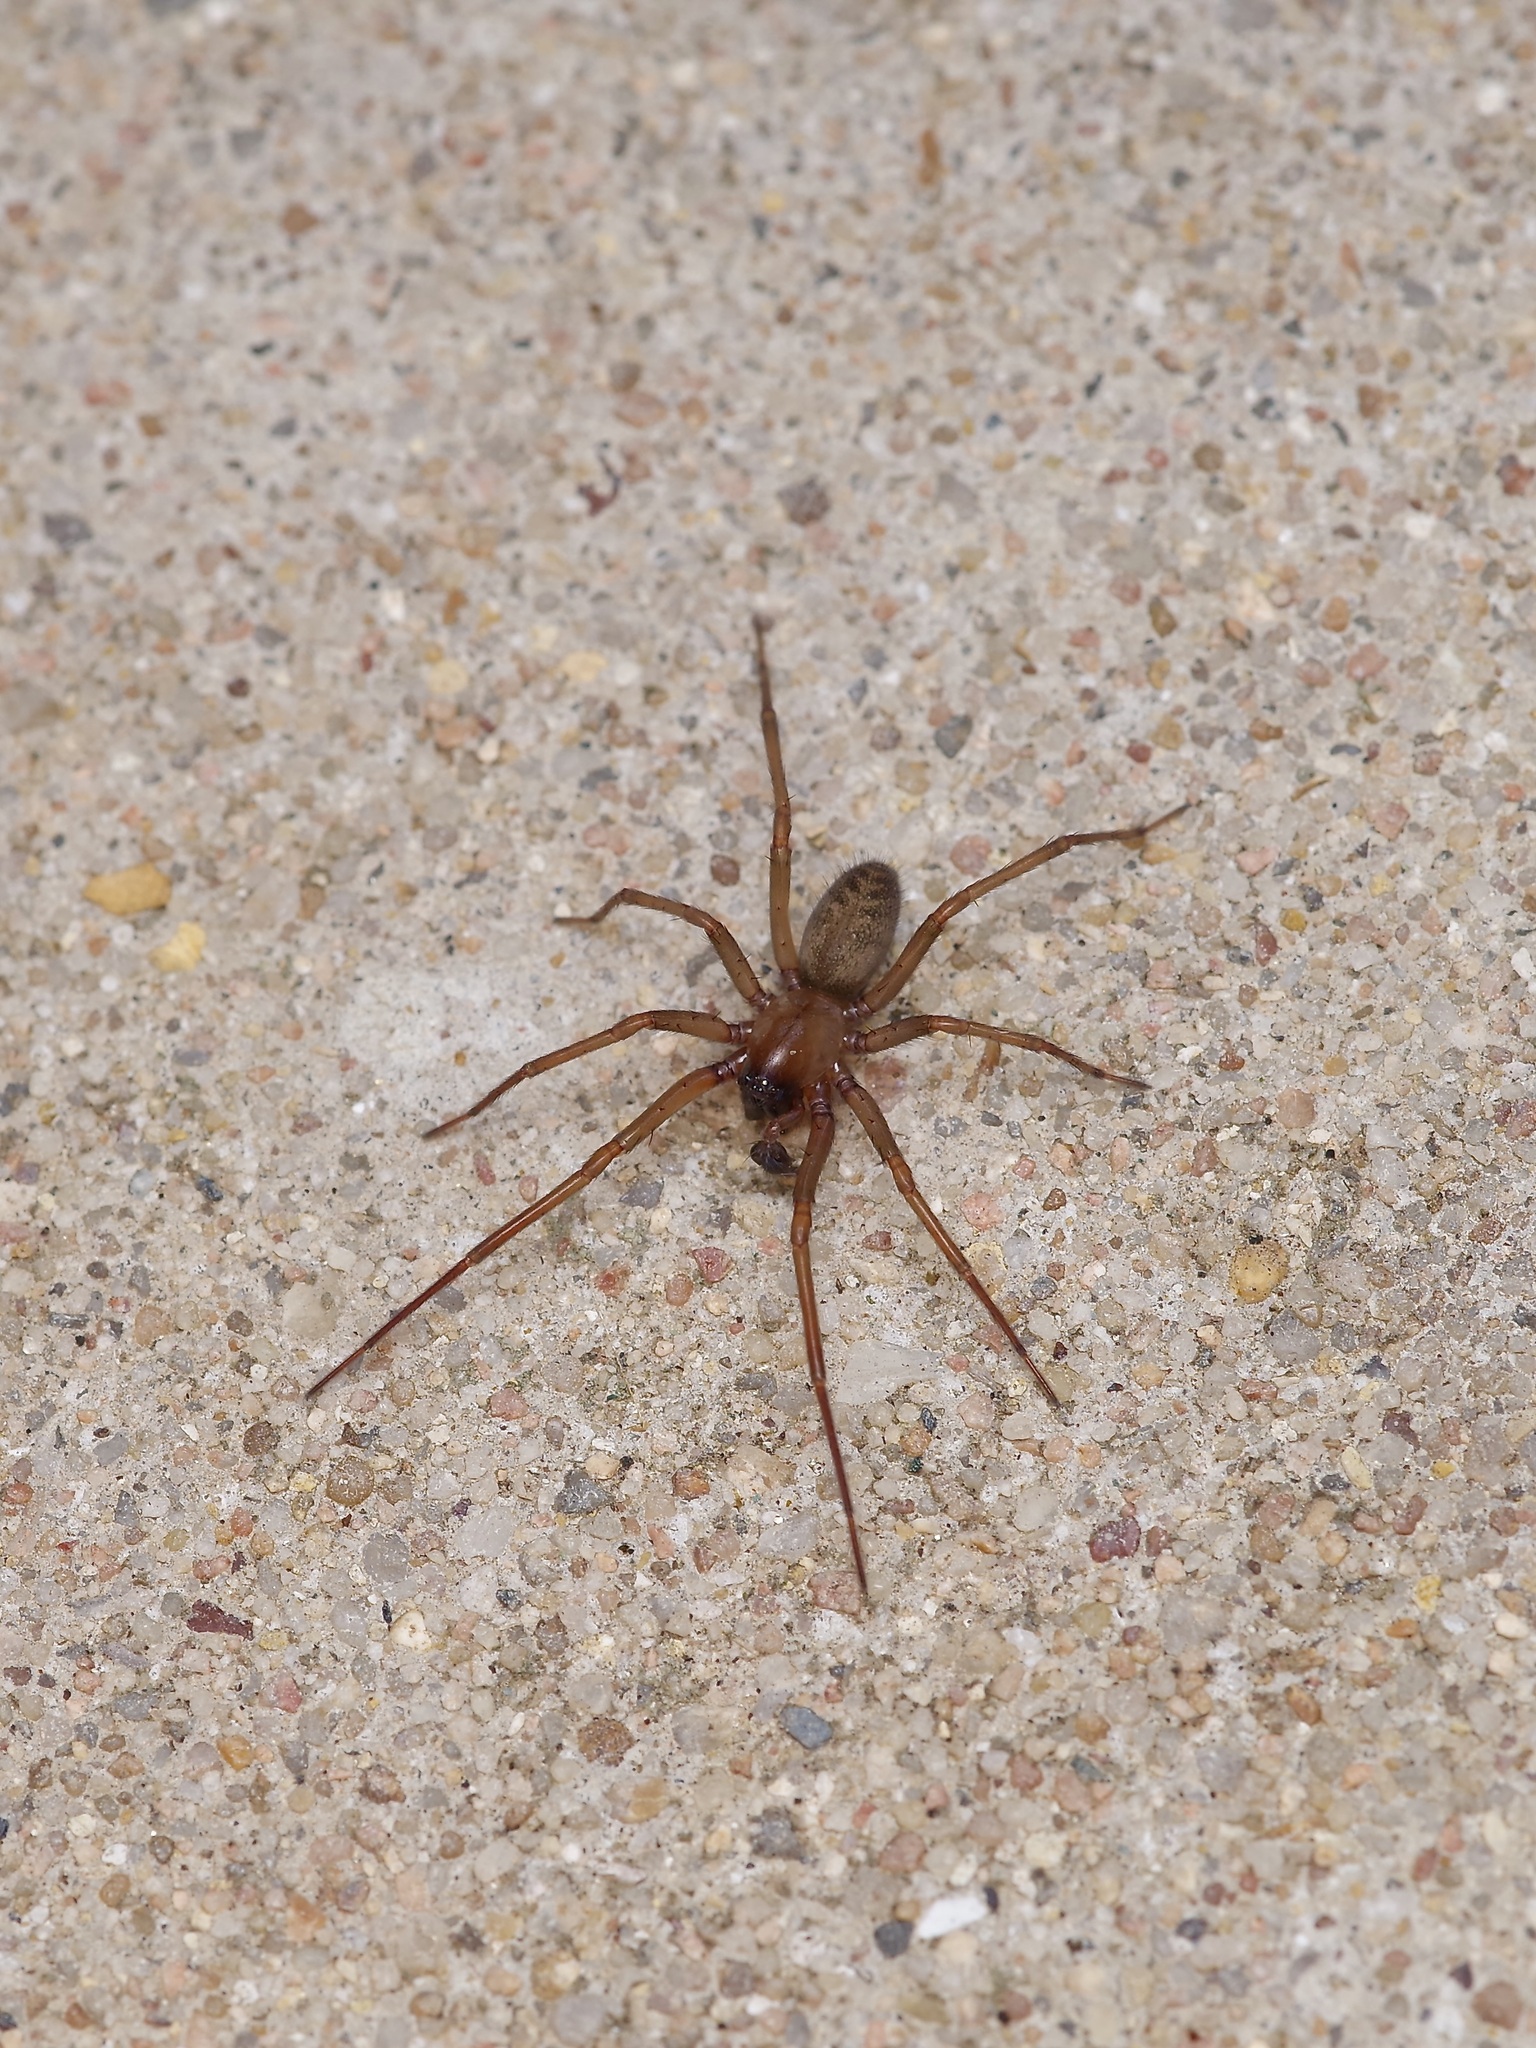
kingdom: Animalia
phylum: Arthropoda
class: Arachnida
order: Araneae
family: Desidae
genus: Metaltella
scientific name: Metaltella simoni
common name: Cribellate spider
